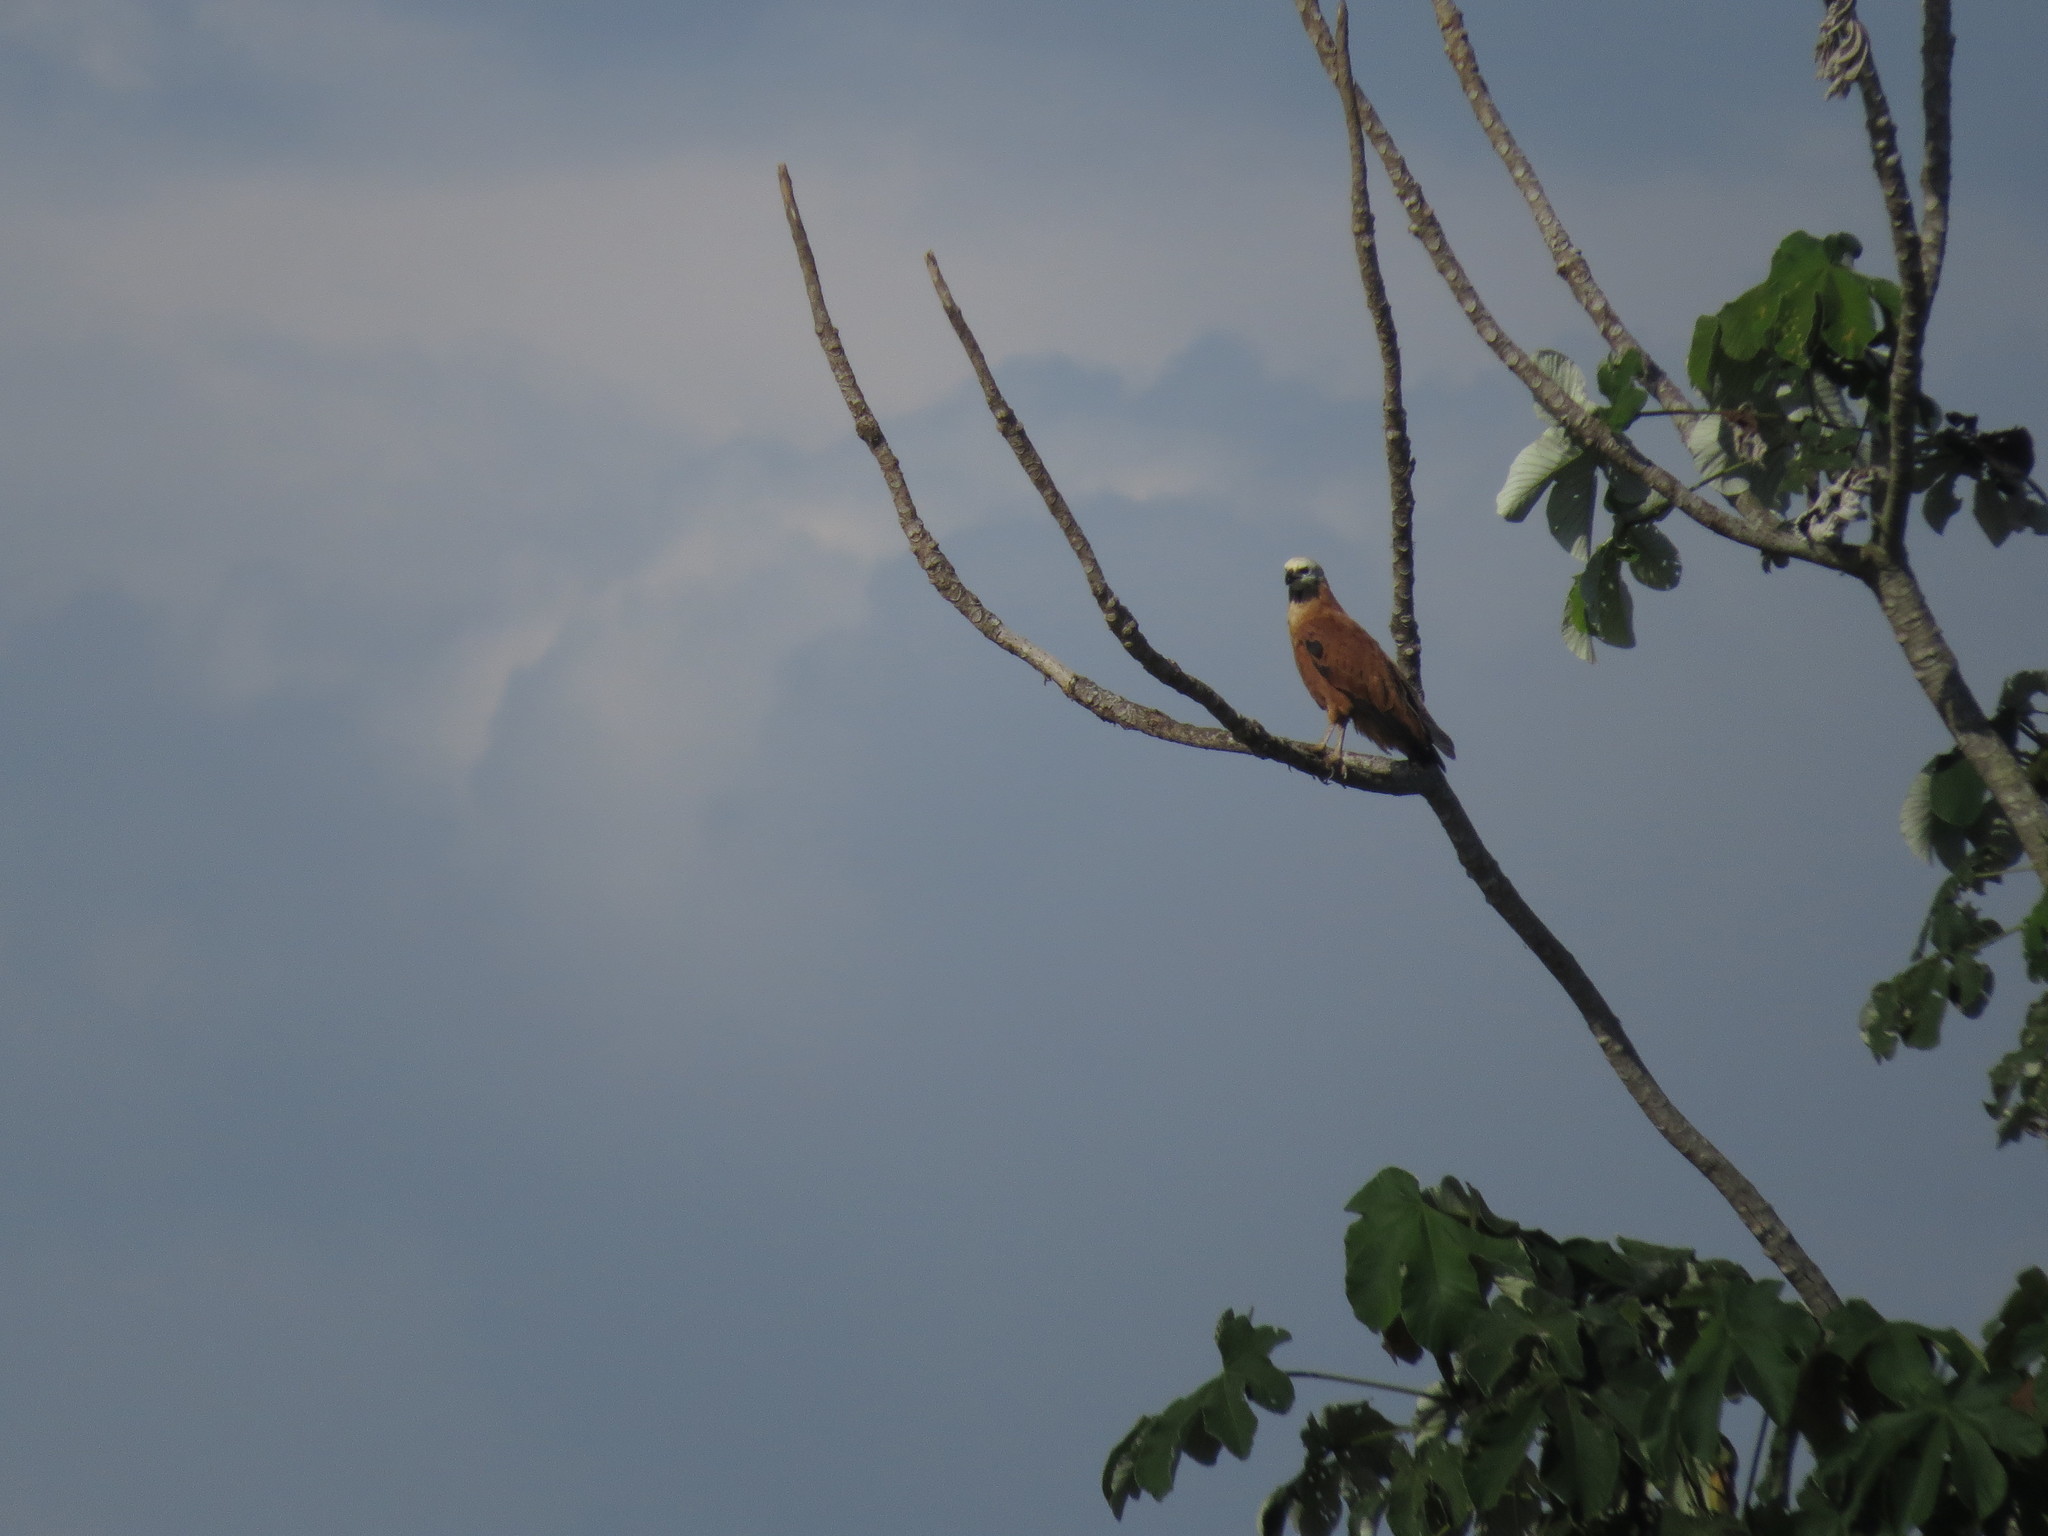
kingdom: Animalia
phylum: Chordata
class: Aves
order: Accipitriformes
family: Accipitridae
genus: Busarellus
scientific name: Busarellus nigricollis
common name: Black-collared hawk
